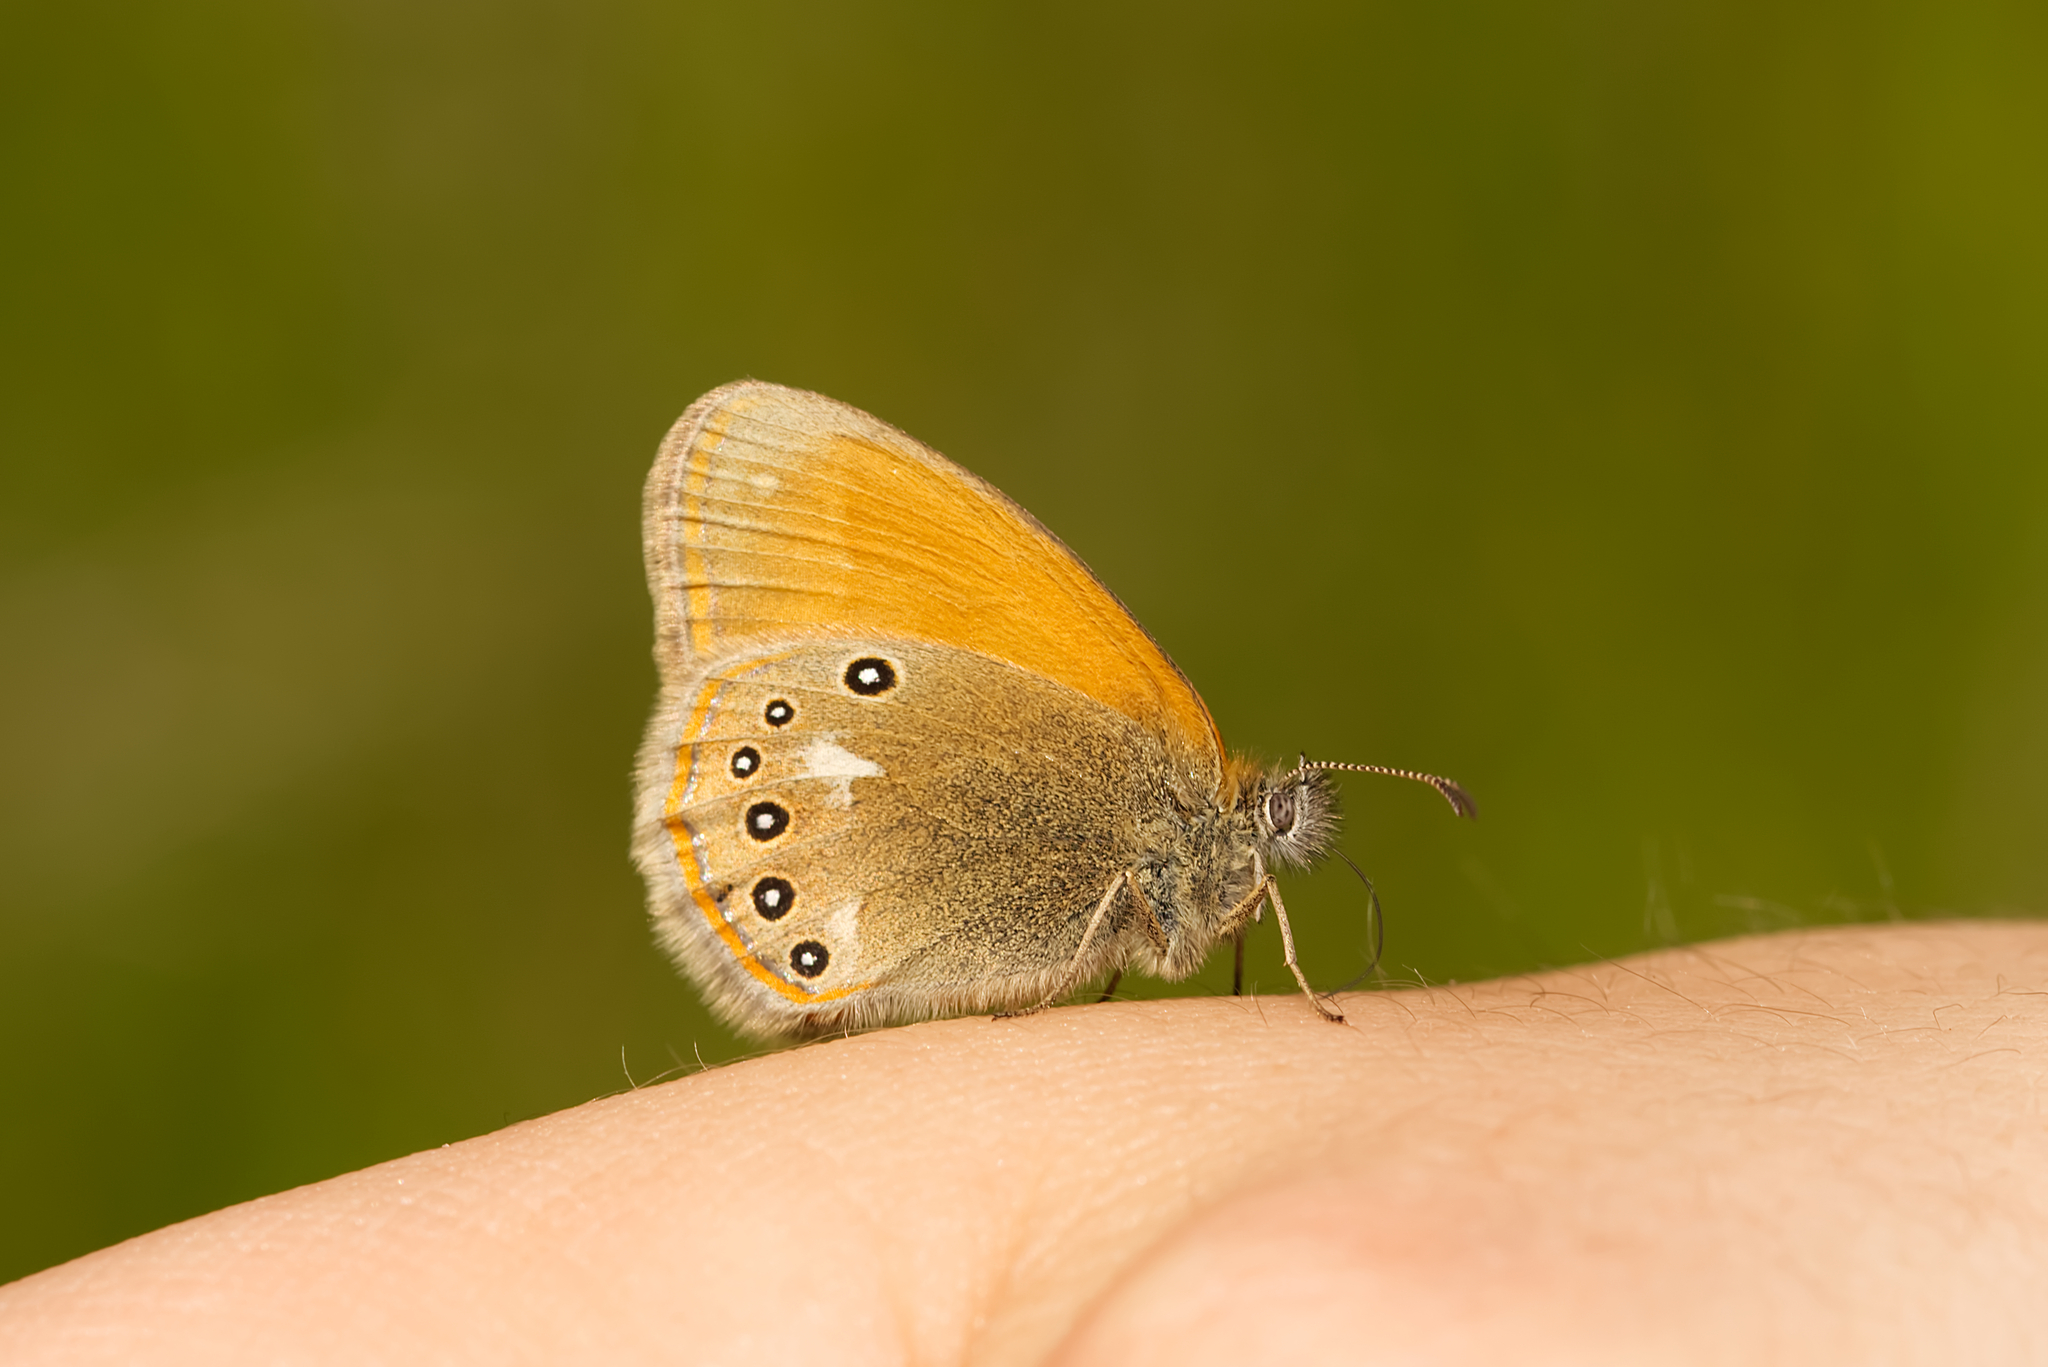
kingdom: Animalia
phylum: Arthropoda
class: Insecta
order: Lepidoptera
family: Nymphalidae
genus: Coenonympha
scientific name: Coenonympha iphis
